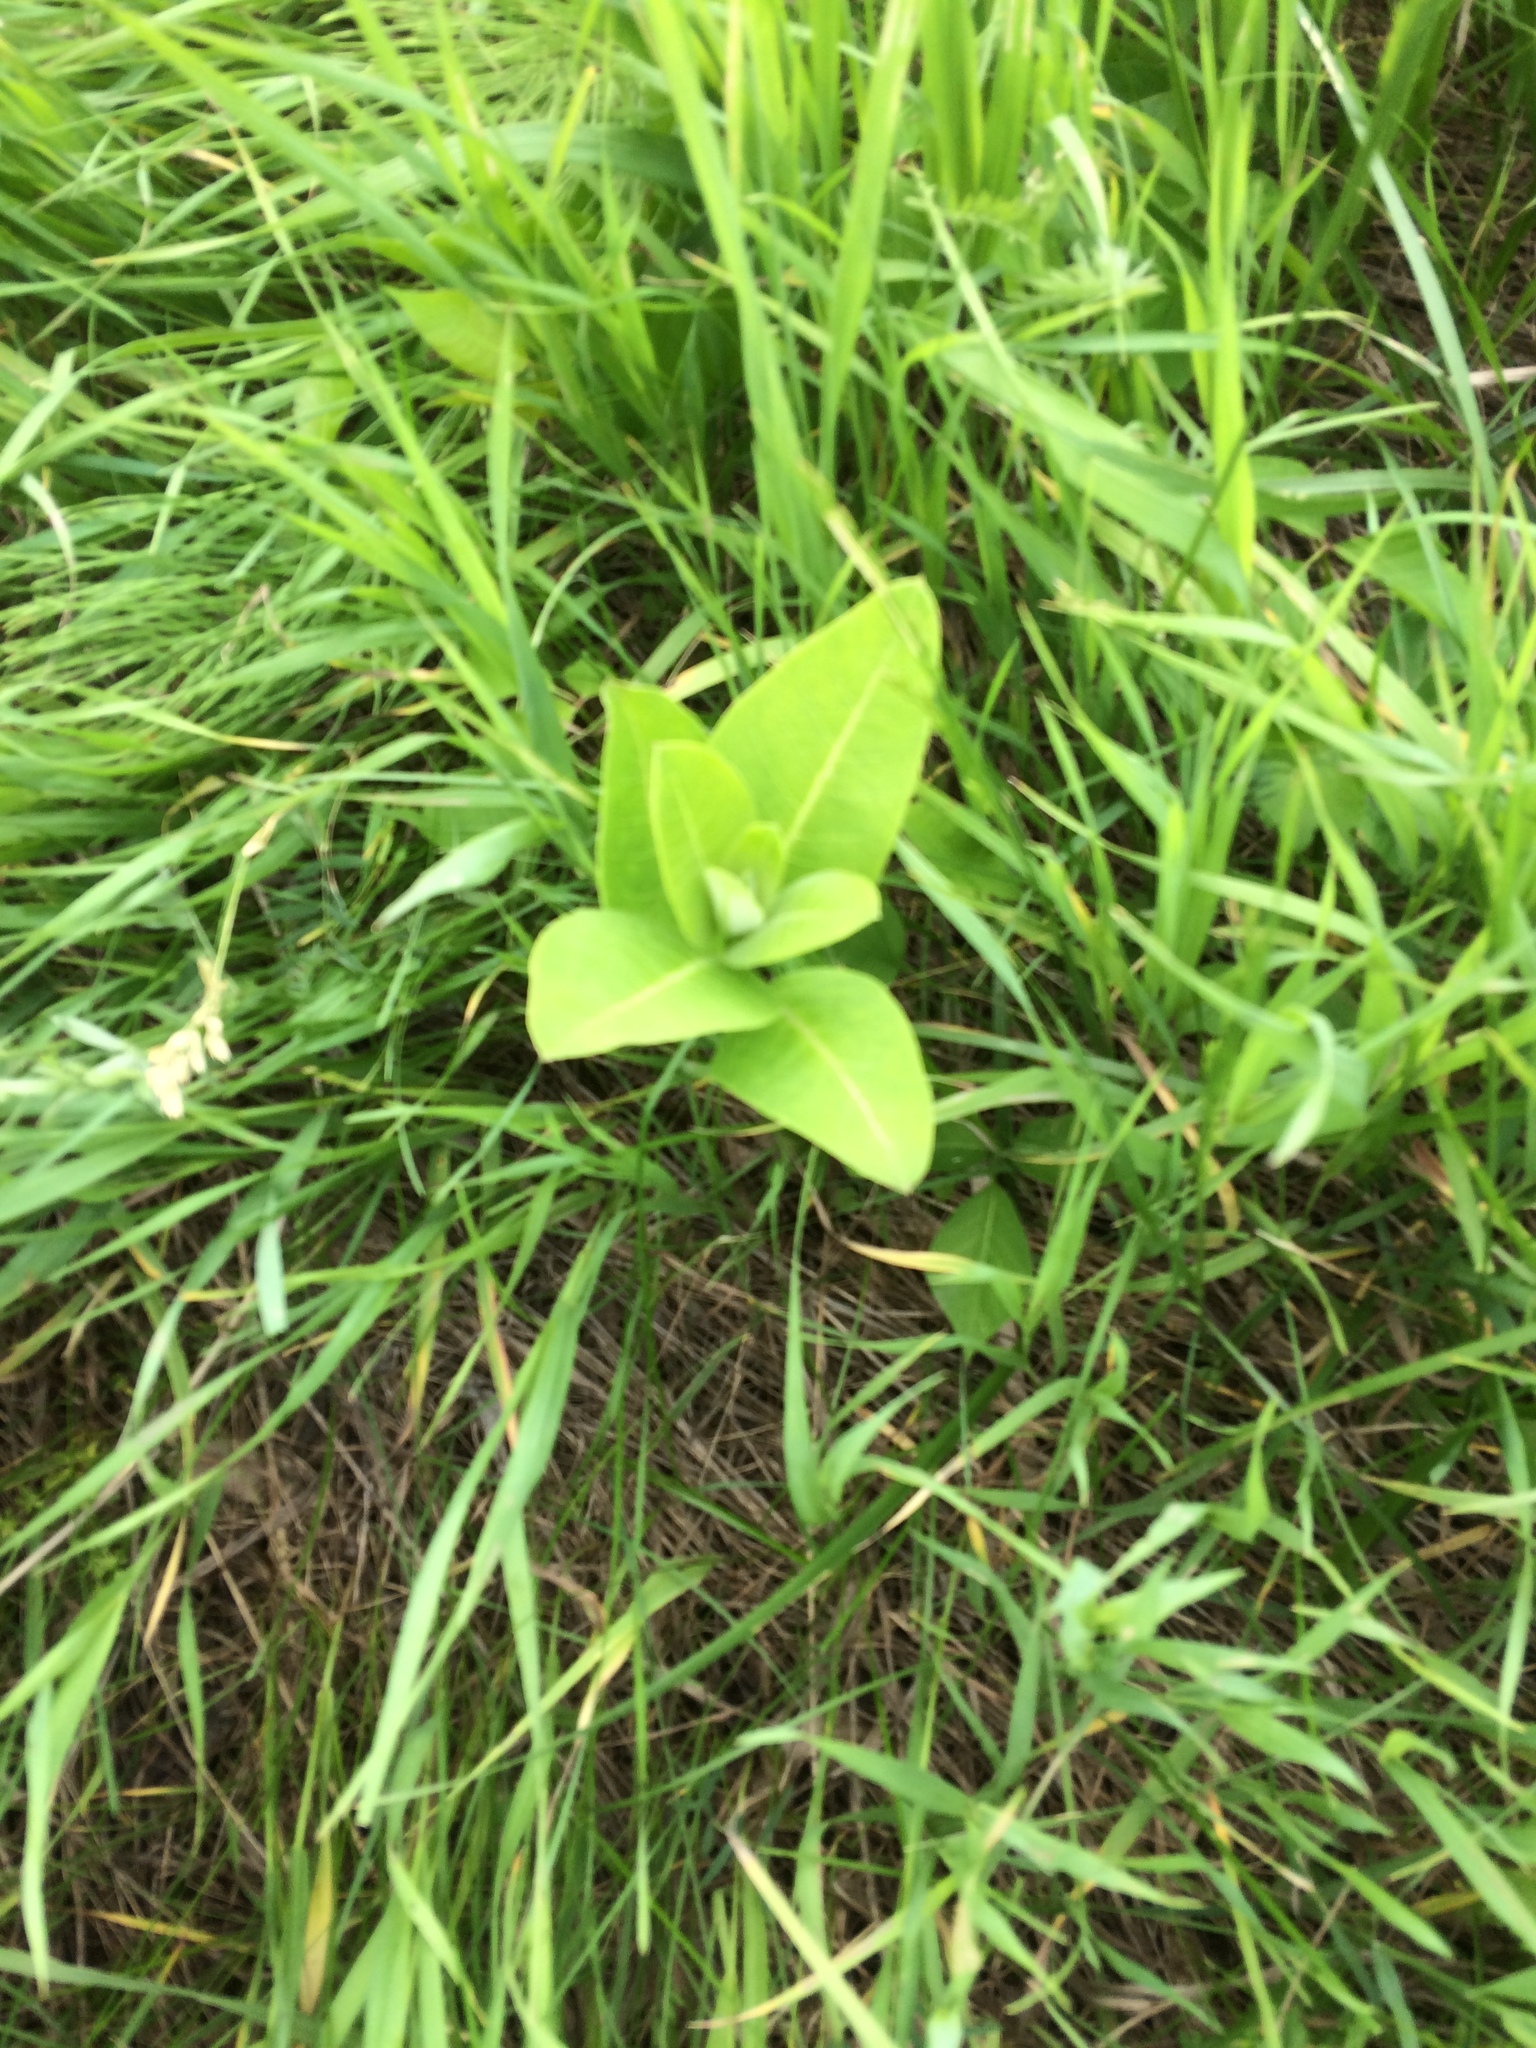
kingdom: Plantae
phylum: Tracheophyta
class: Magnoliopsida
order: Gentianales
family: Apocynaceae
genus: Asclepias
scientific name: Asclepias syriaca
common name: Common milkweed
